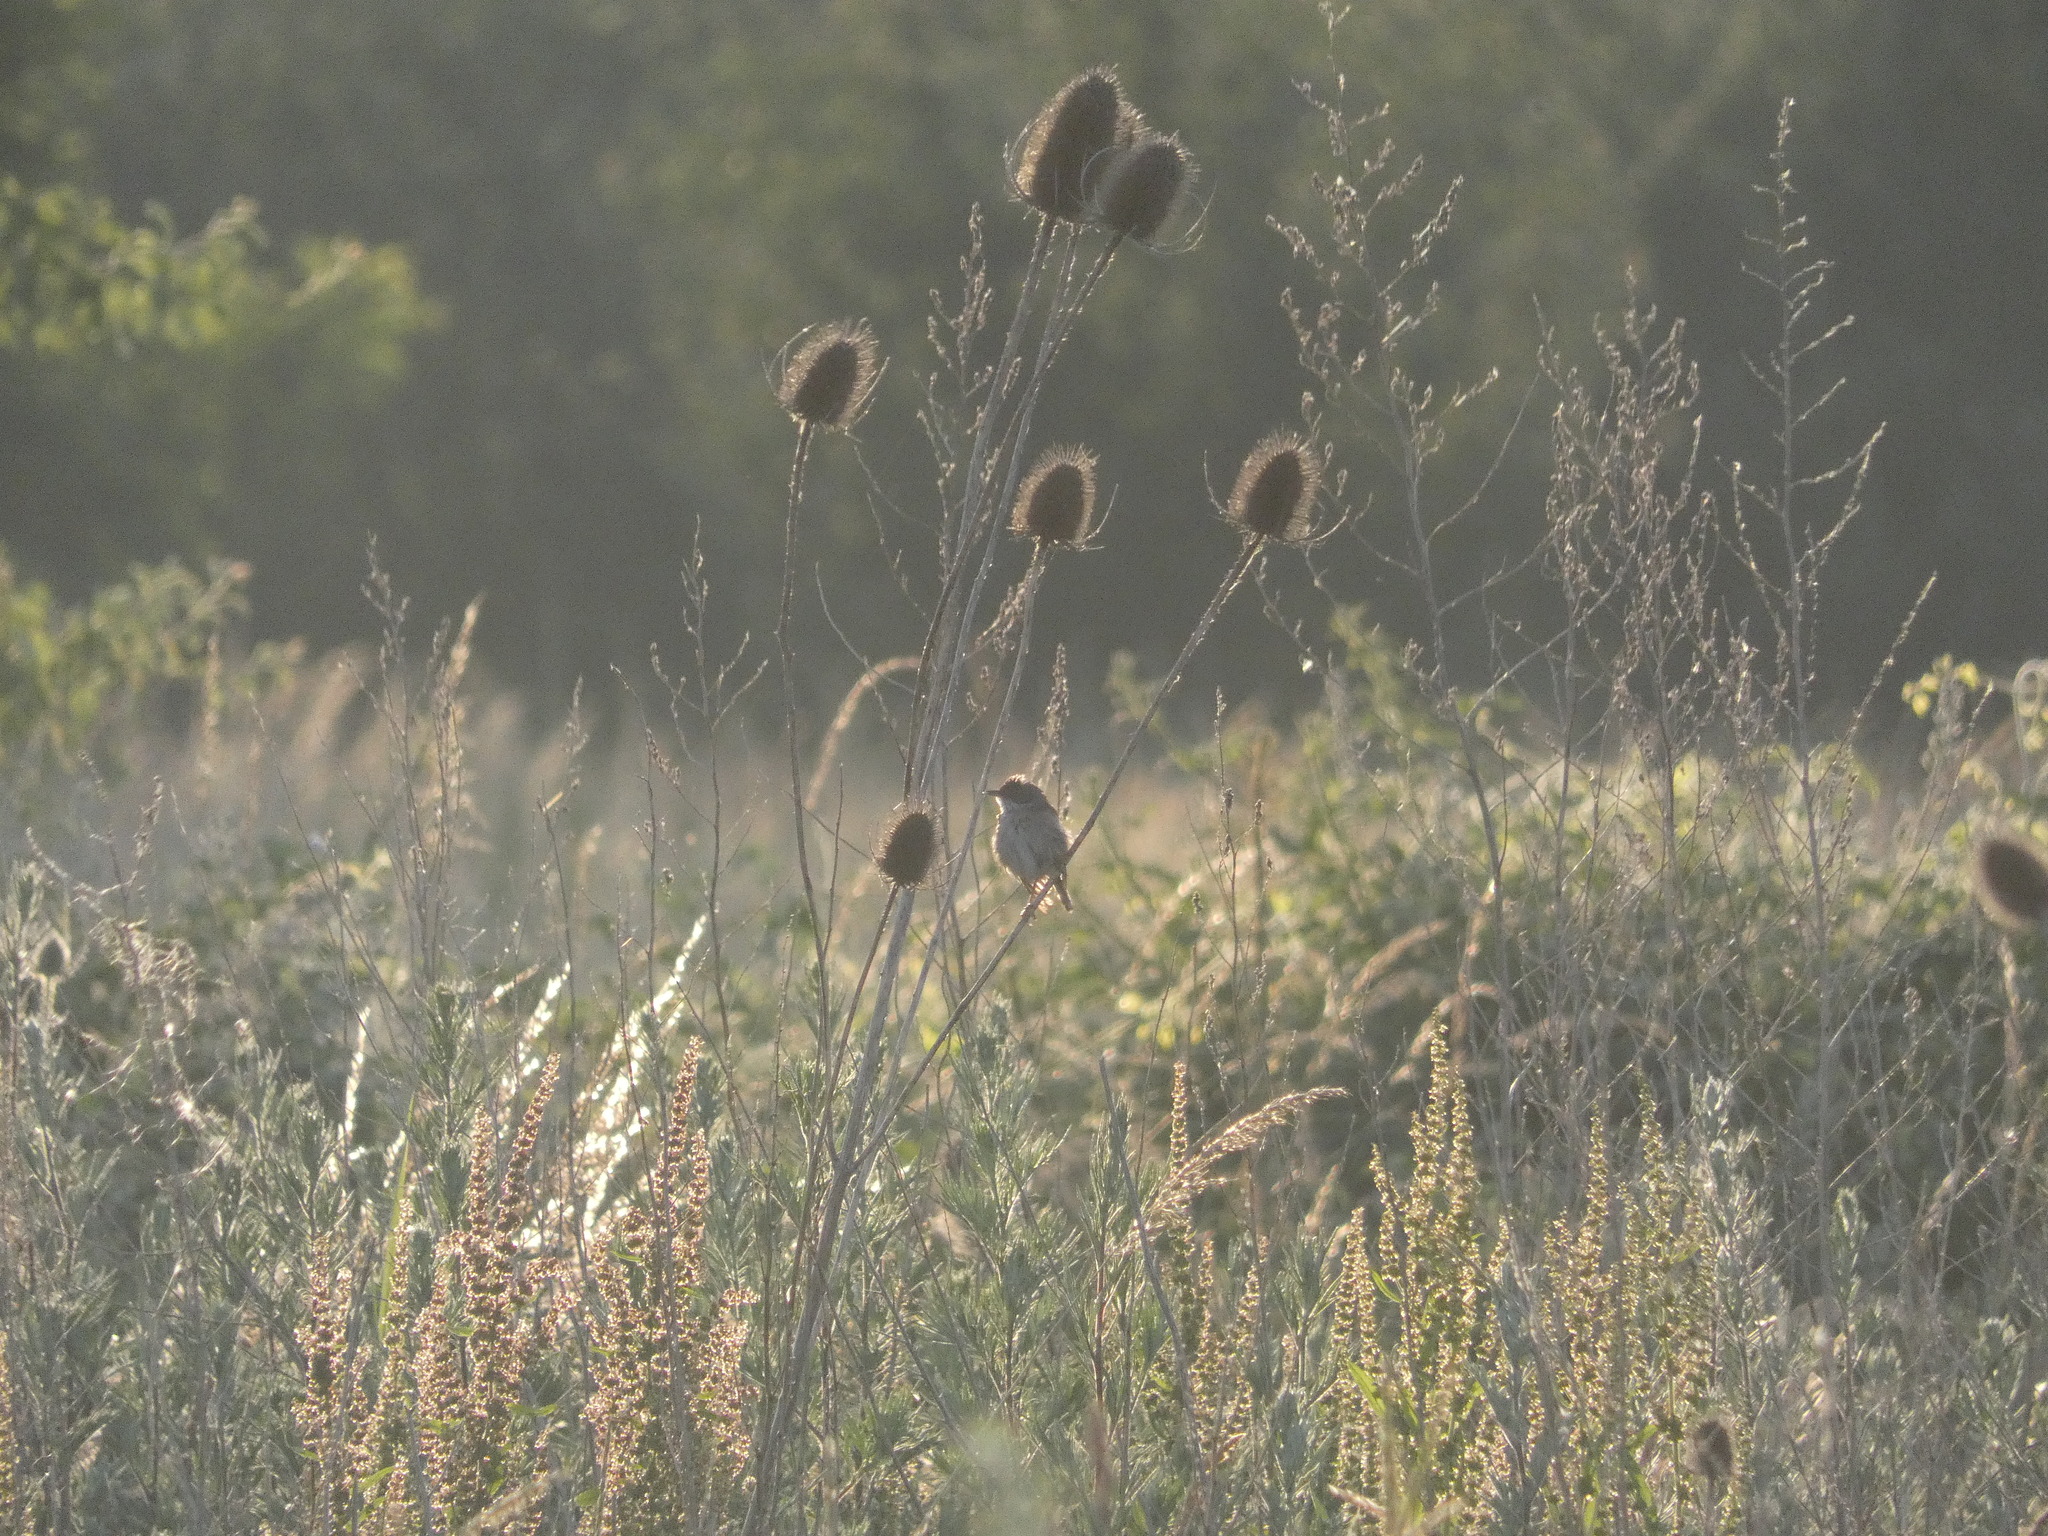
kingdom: Animalia
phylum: Chordata
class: Aves
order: Passeriformes
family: Sylviidae
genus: Sylvia
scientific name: Sylvia communis
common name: Common whitethroat
